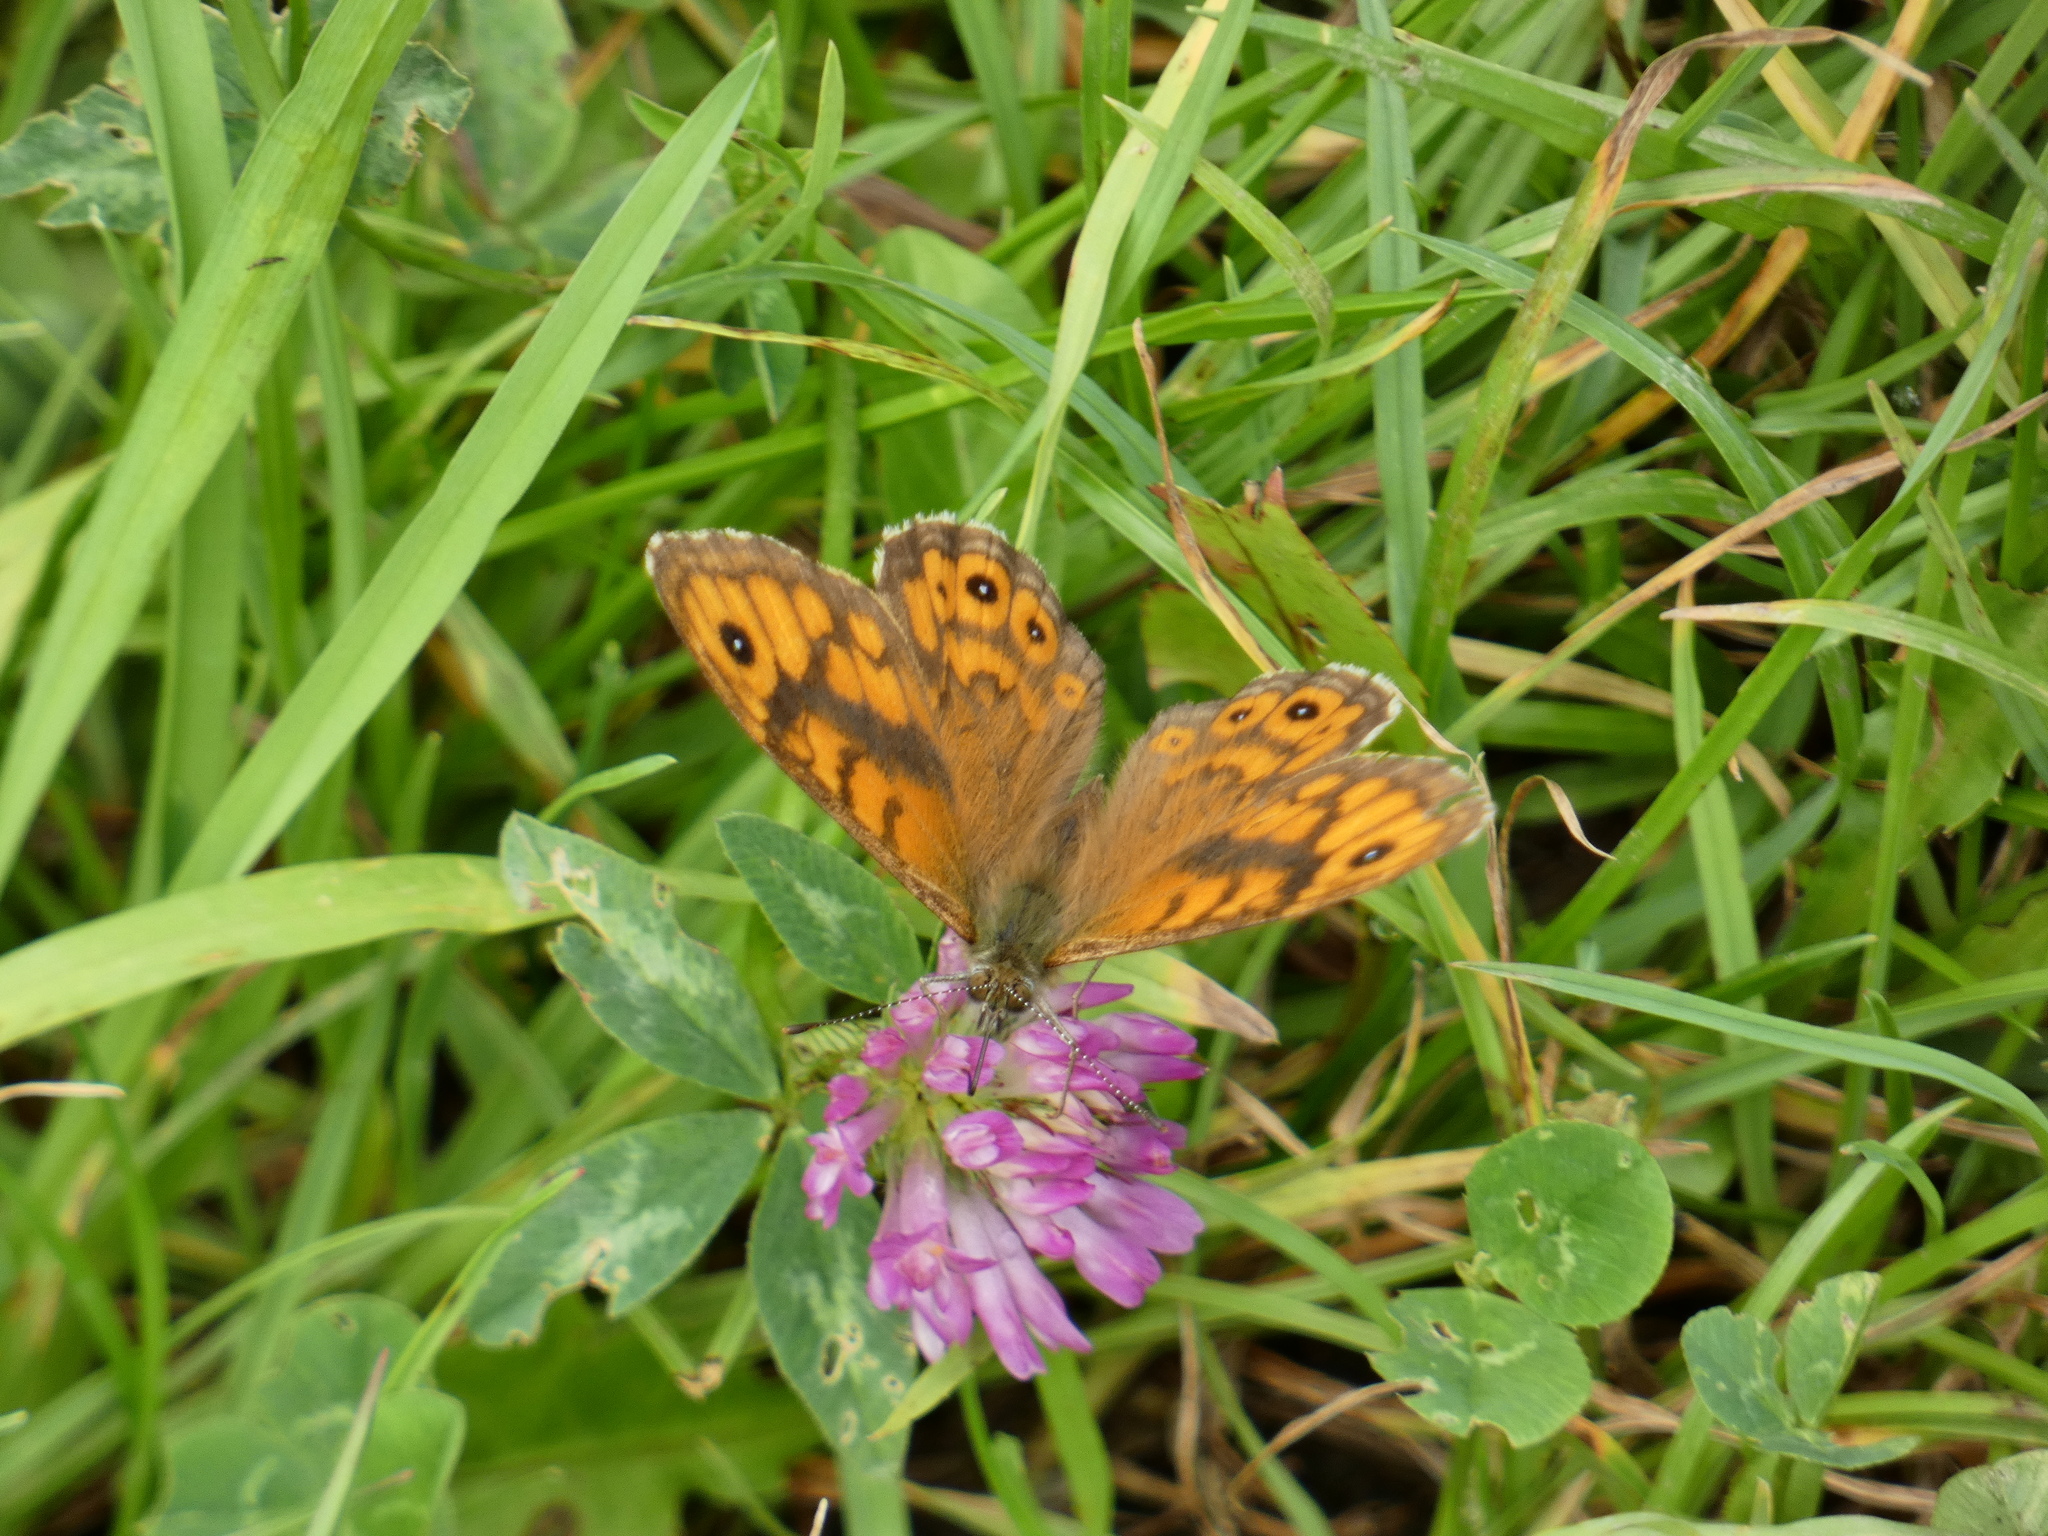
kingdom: Animalia
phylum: Arthropoda
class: Insecta
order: Lepidoptera
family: Nymphalidae
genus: Pararge
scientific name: Pararge Lasiommata megera
